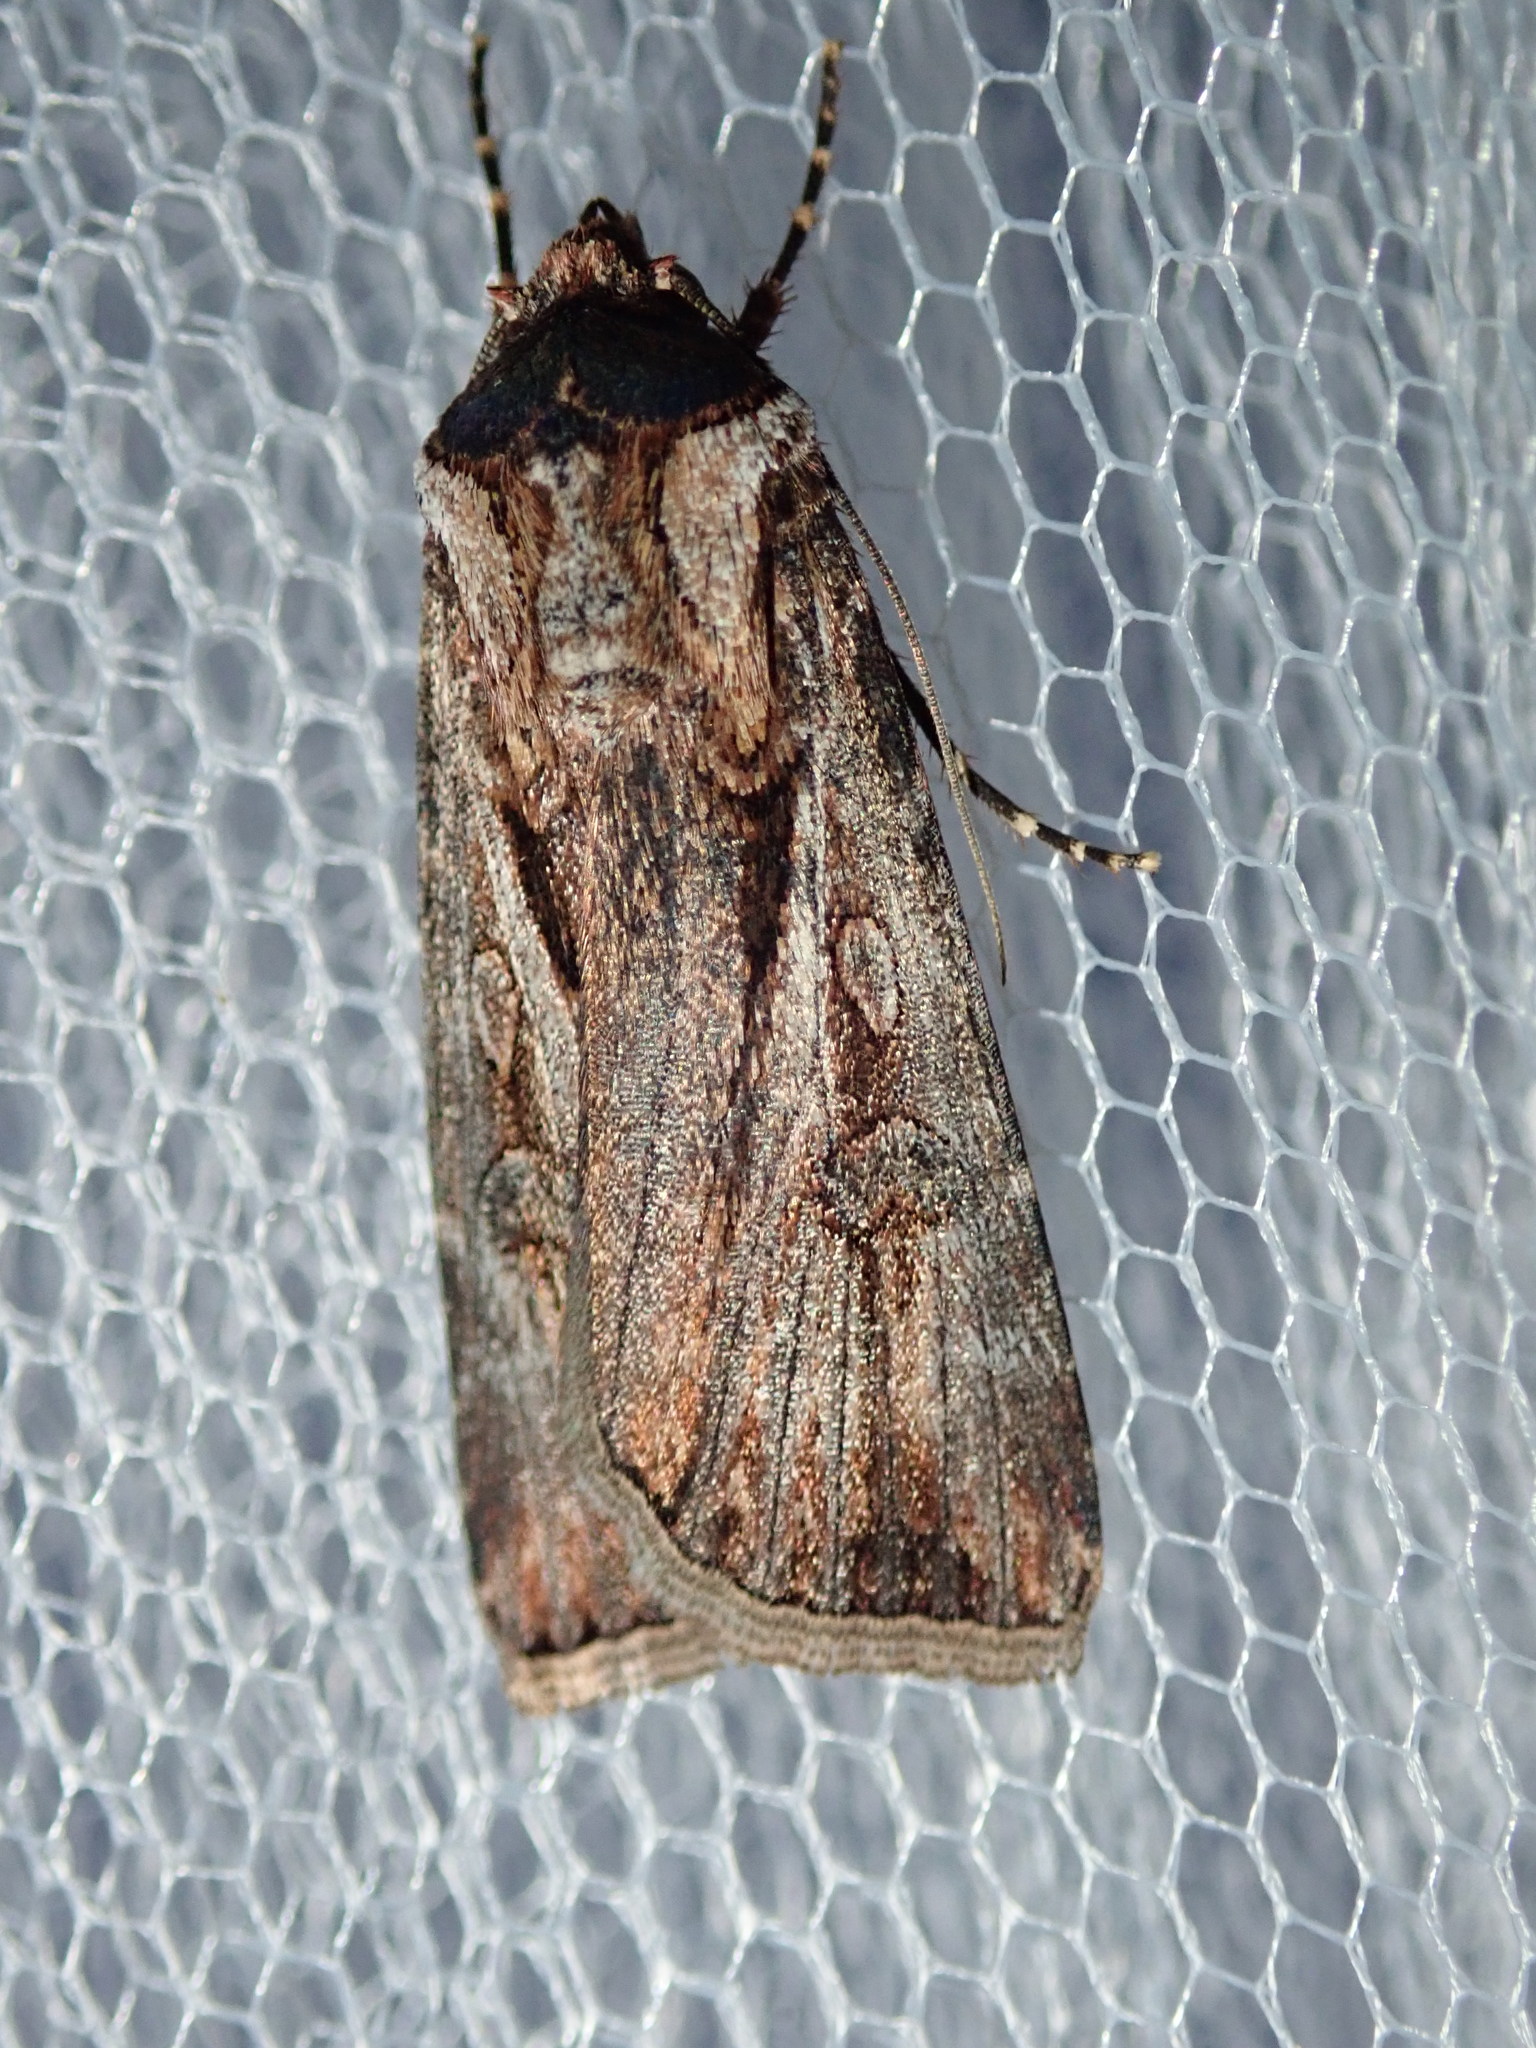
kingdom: Animalia
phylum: Arthropoda
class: Insecta
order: Lepidoptera
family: Noctuidae
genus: Agrotis
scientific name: Agrotis munda
